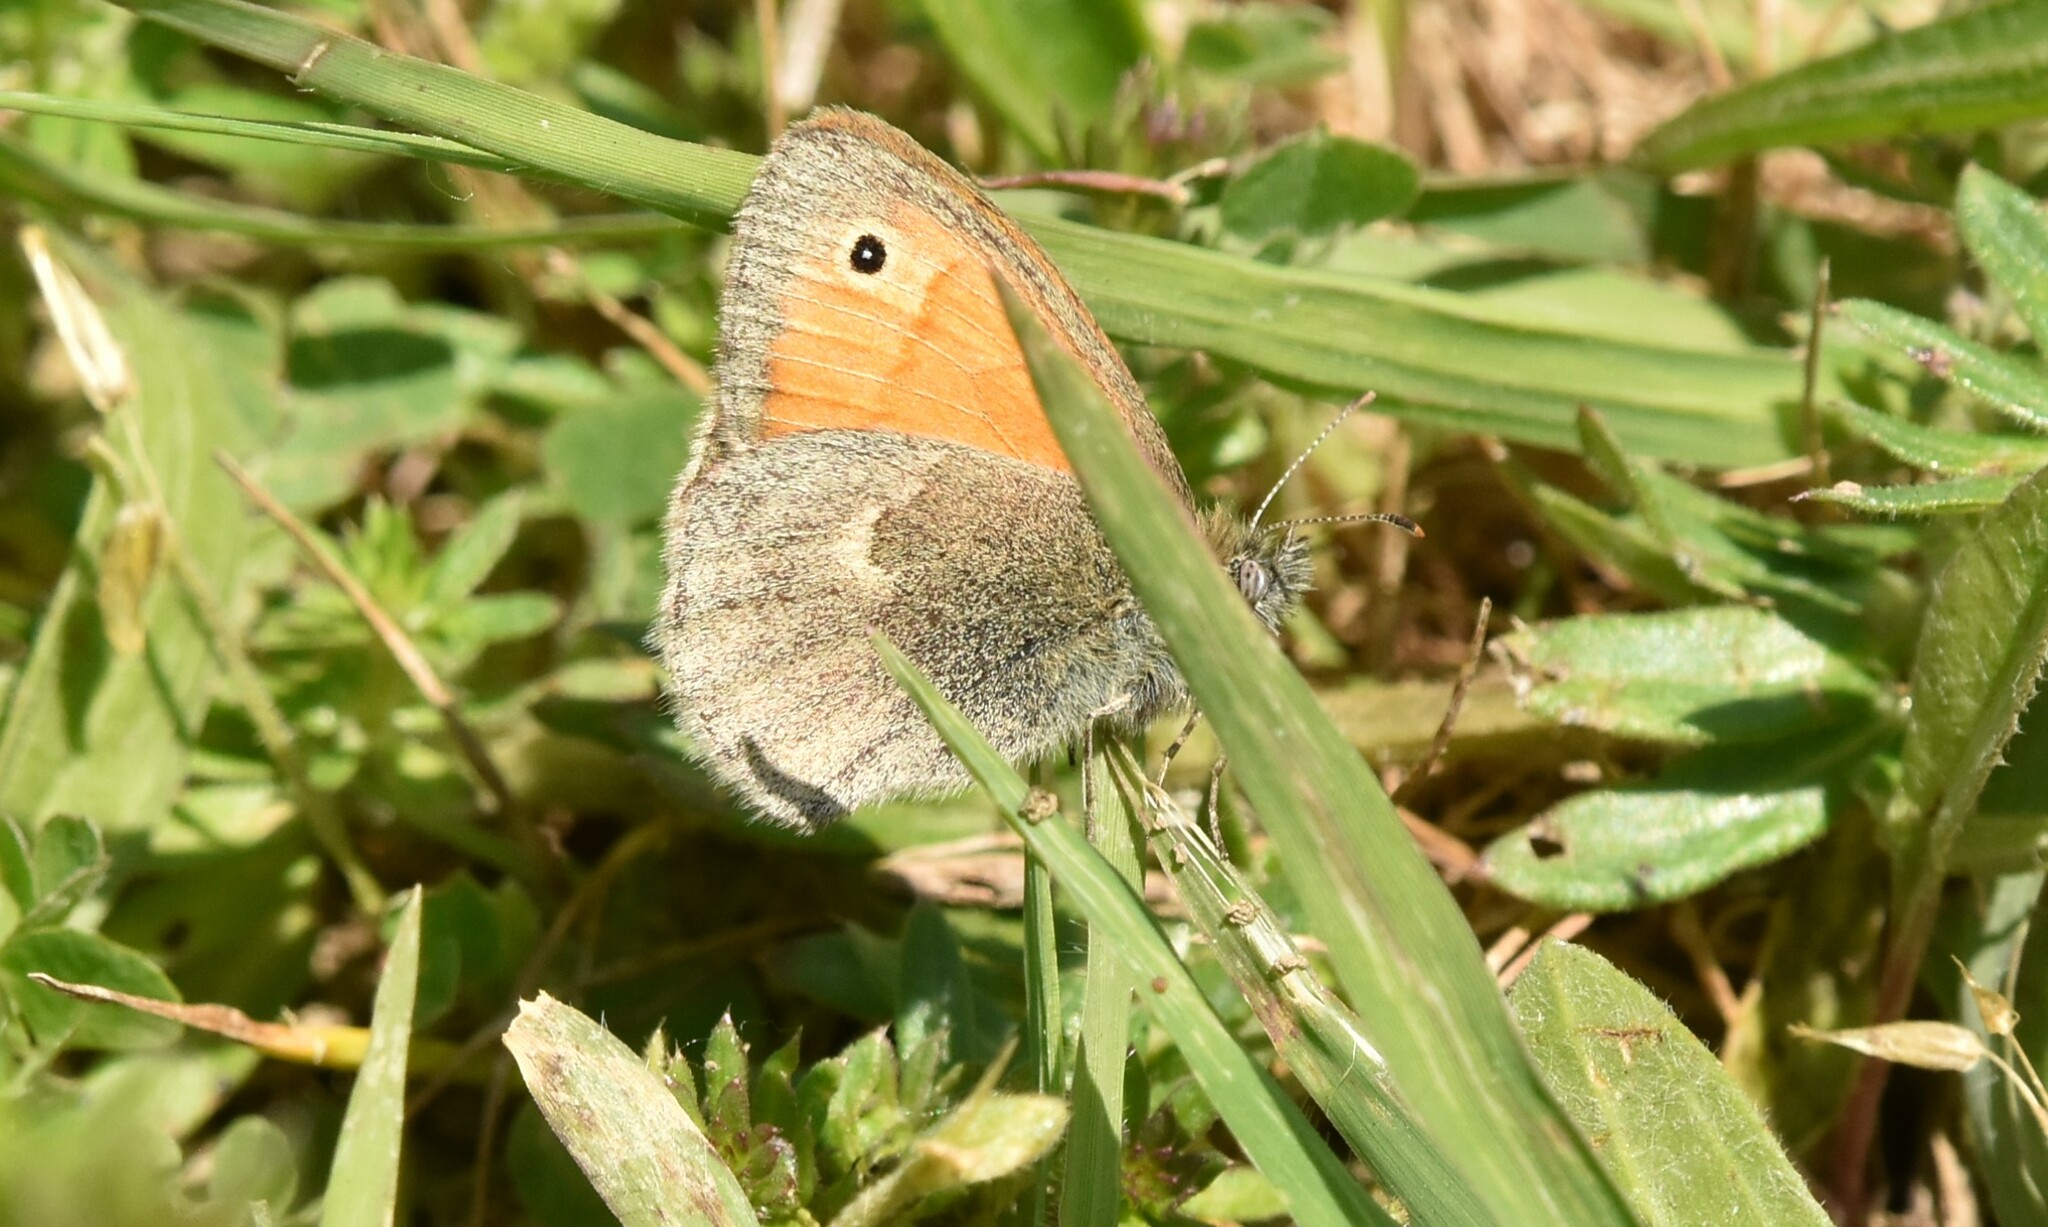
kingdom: Animalia
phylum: Arthropoda
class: Insecta
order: Lepidoptera
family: Nymphalidae
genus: Coenonympha
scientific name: Coenonympha pamphilus
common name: Small heath
